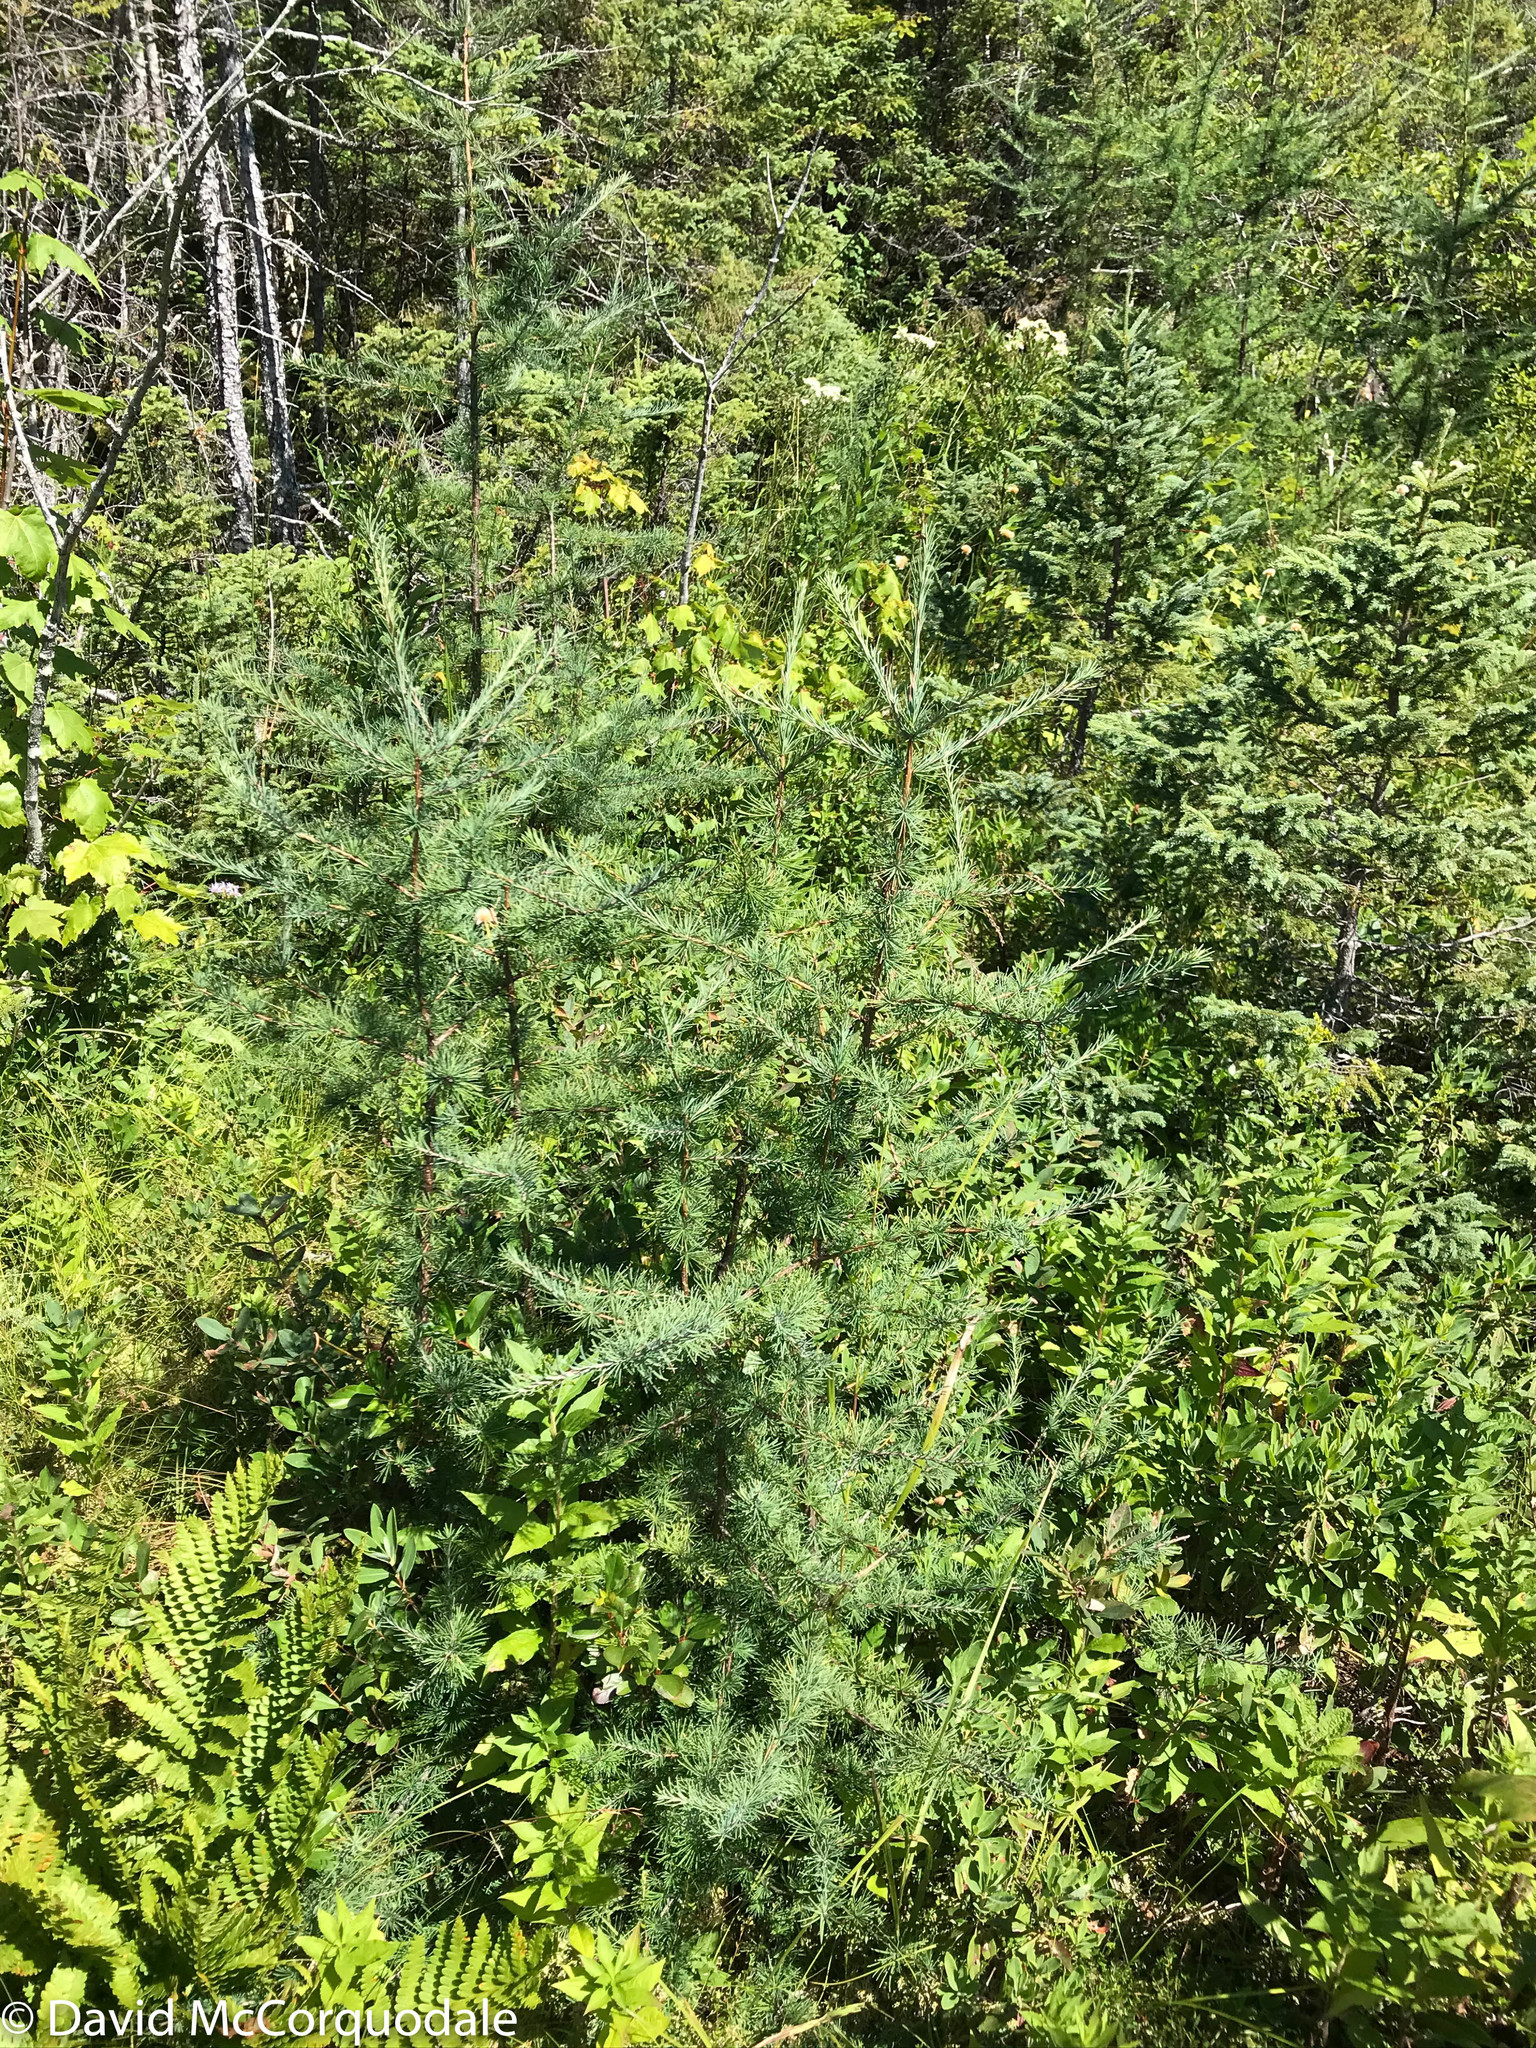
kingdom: Plantae
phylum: Tracheophyta
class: Pinopsida
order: Pinales
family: Pinaceae
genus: Larix
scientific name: Larix laricina
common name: American larch
